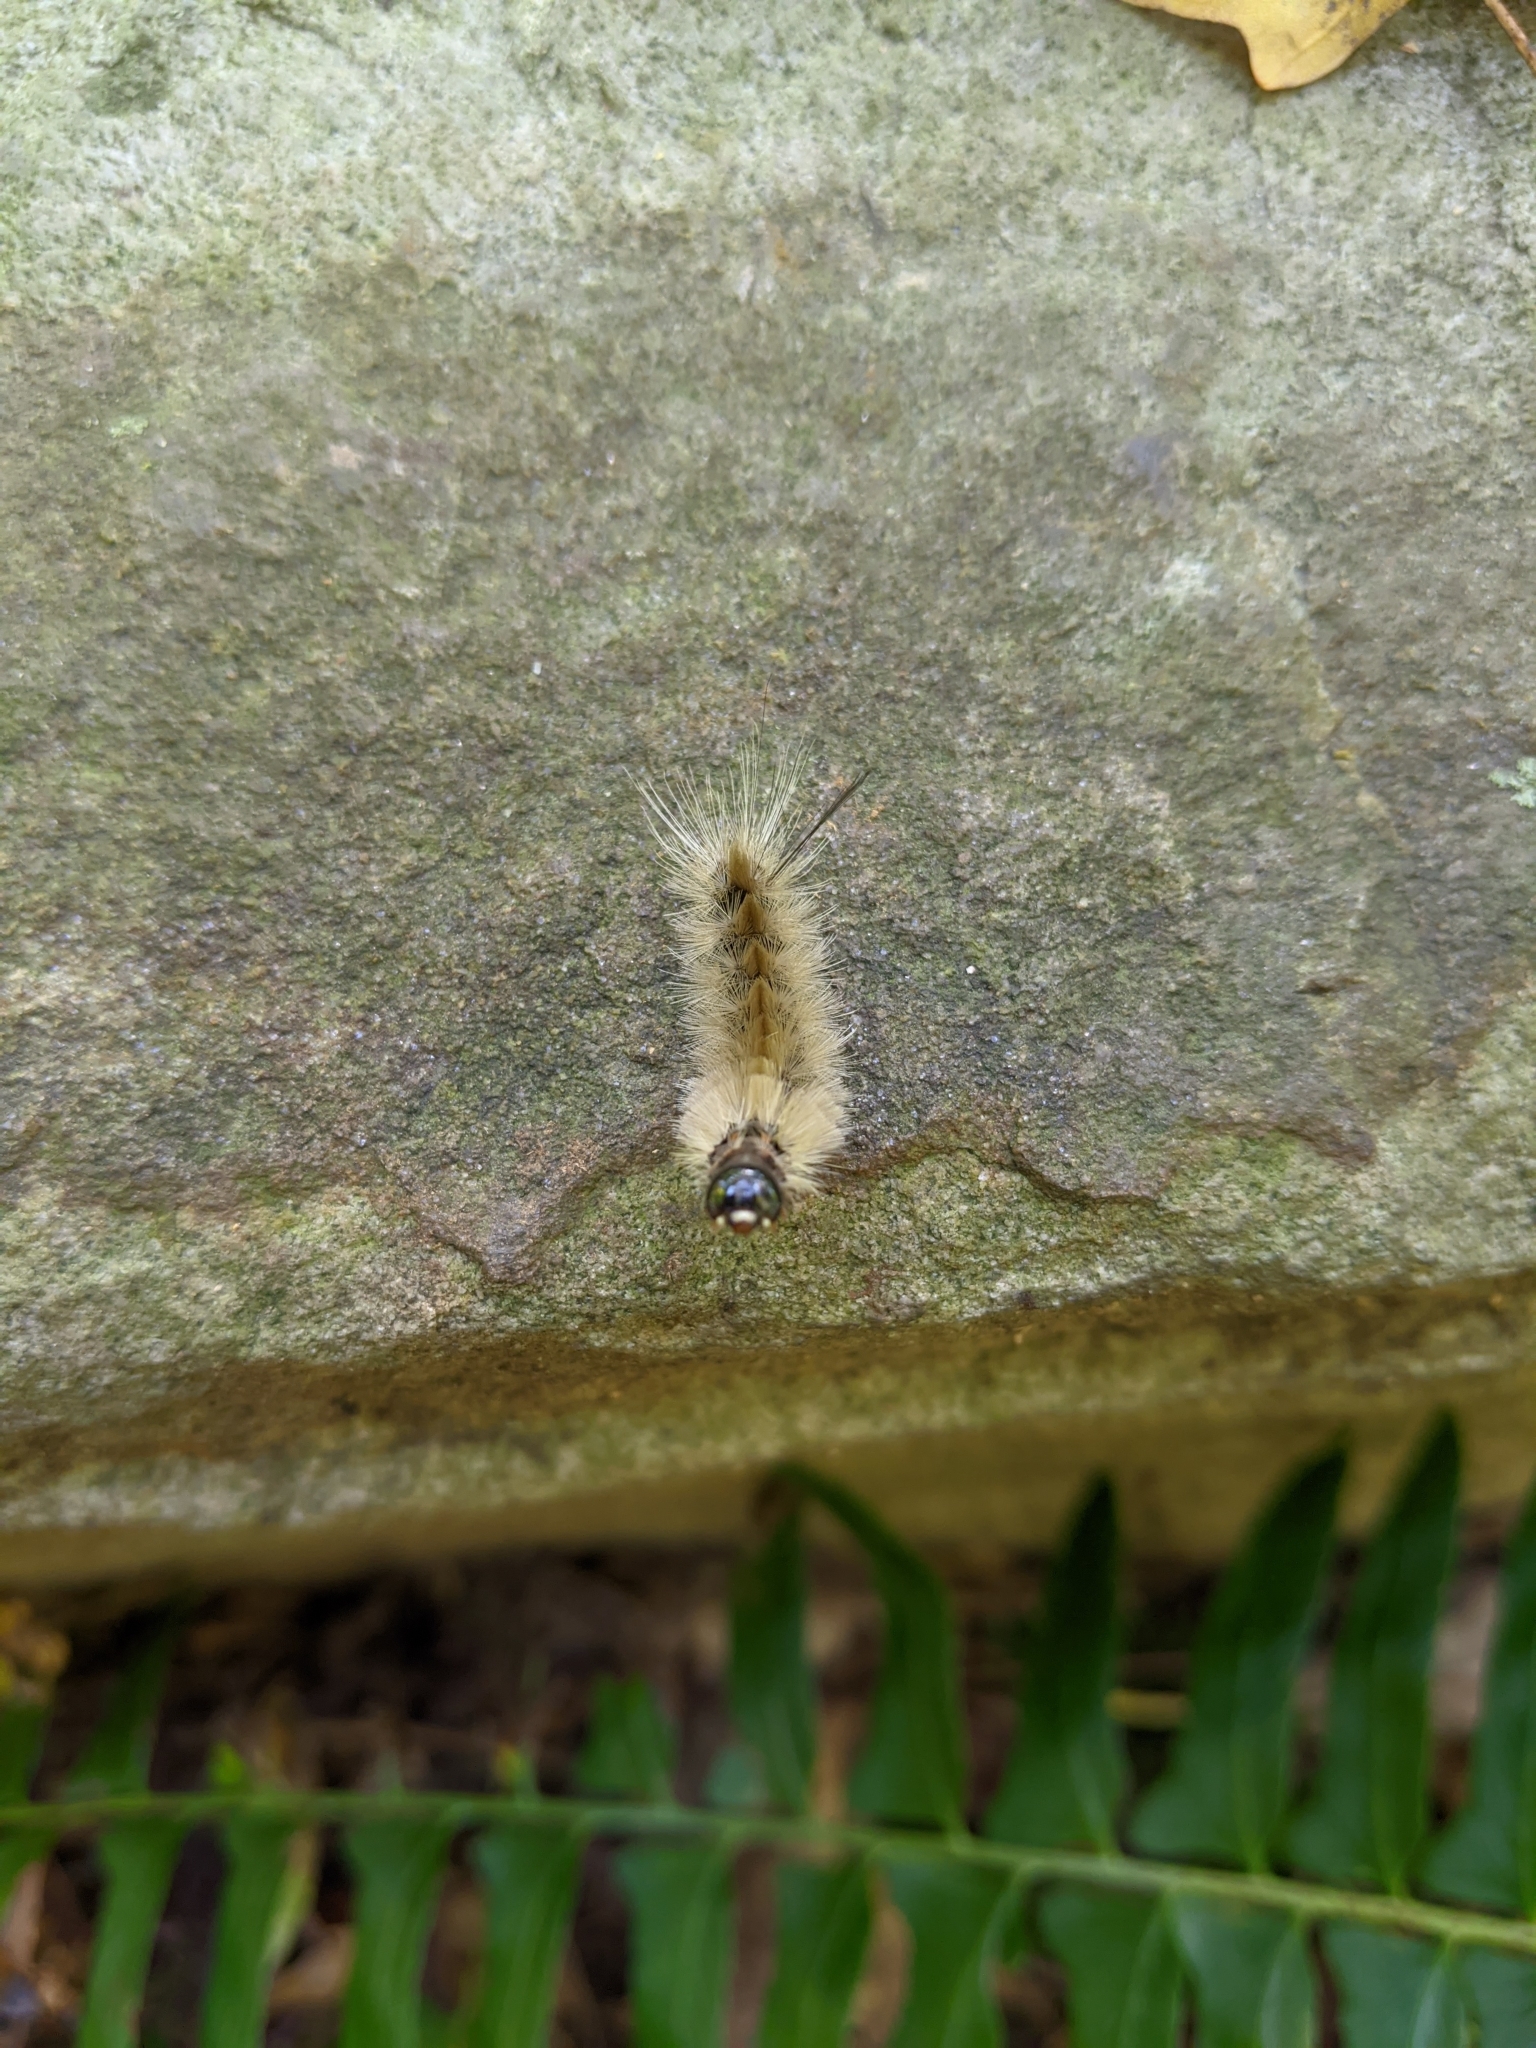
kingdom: Animalia
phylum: Arthropoda
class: Insecta
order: Lepidoptera
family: Erebidae
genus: Halysidota
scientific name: Halysidota tessellaris
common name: Banded tussock moth
